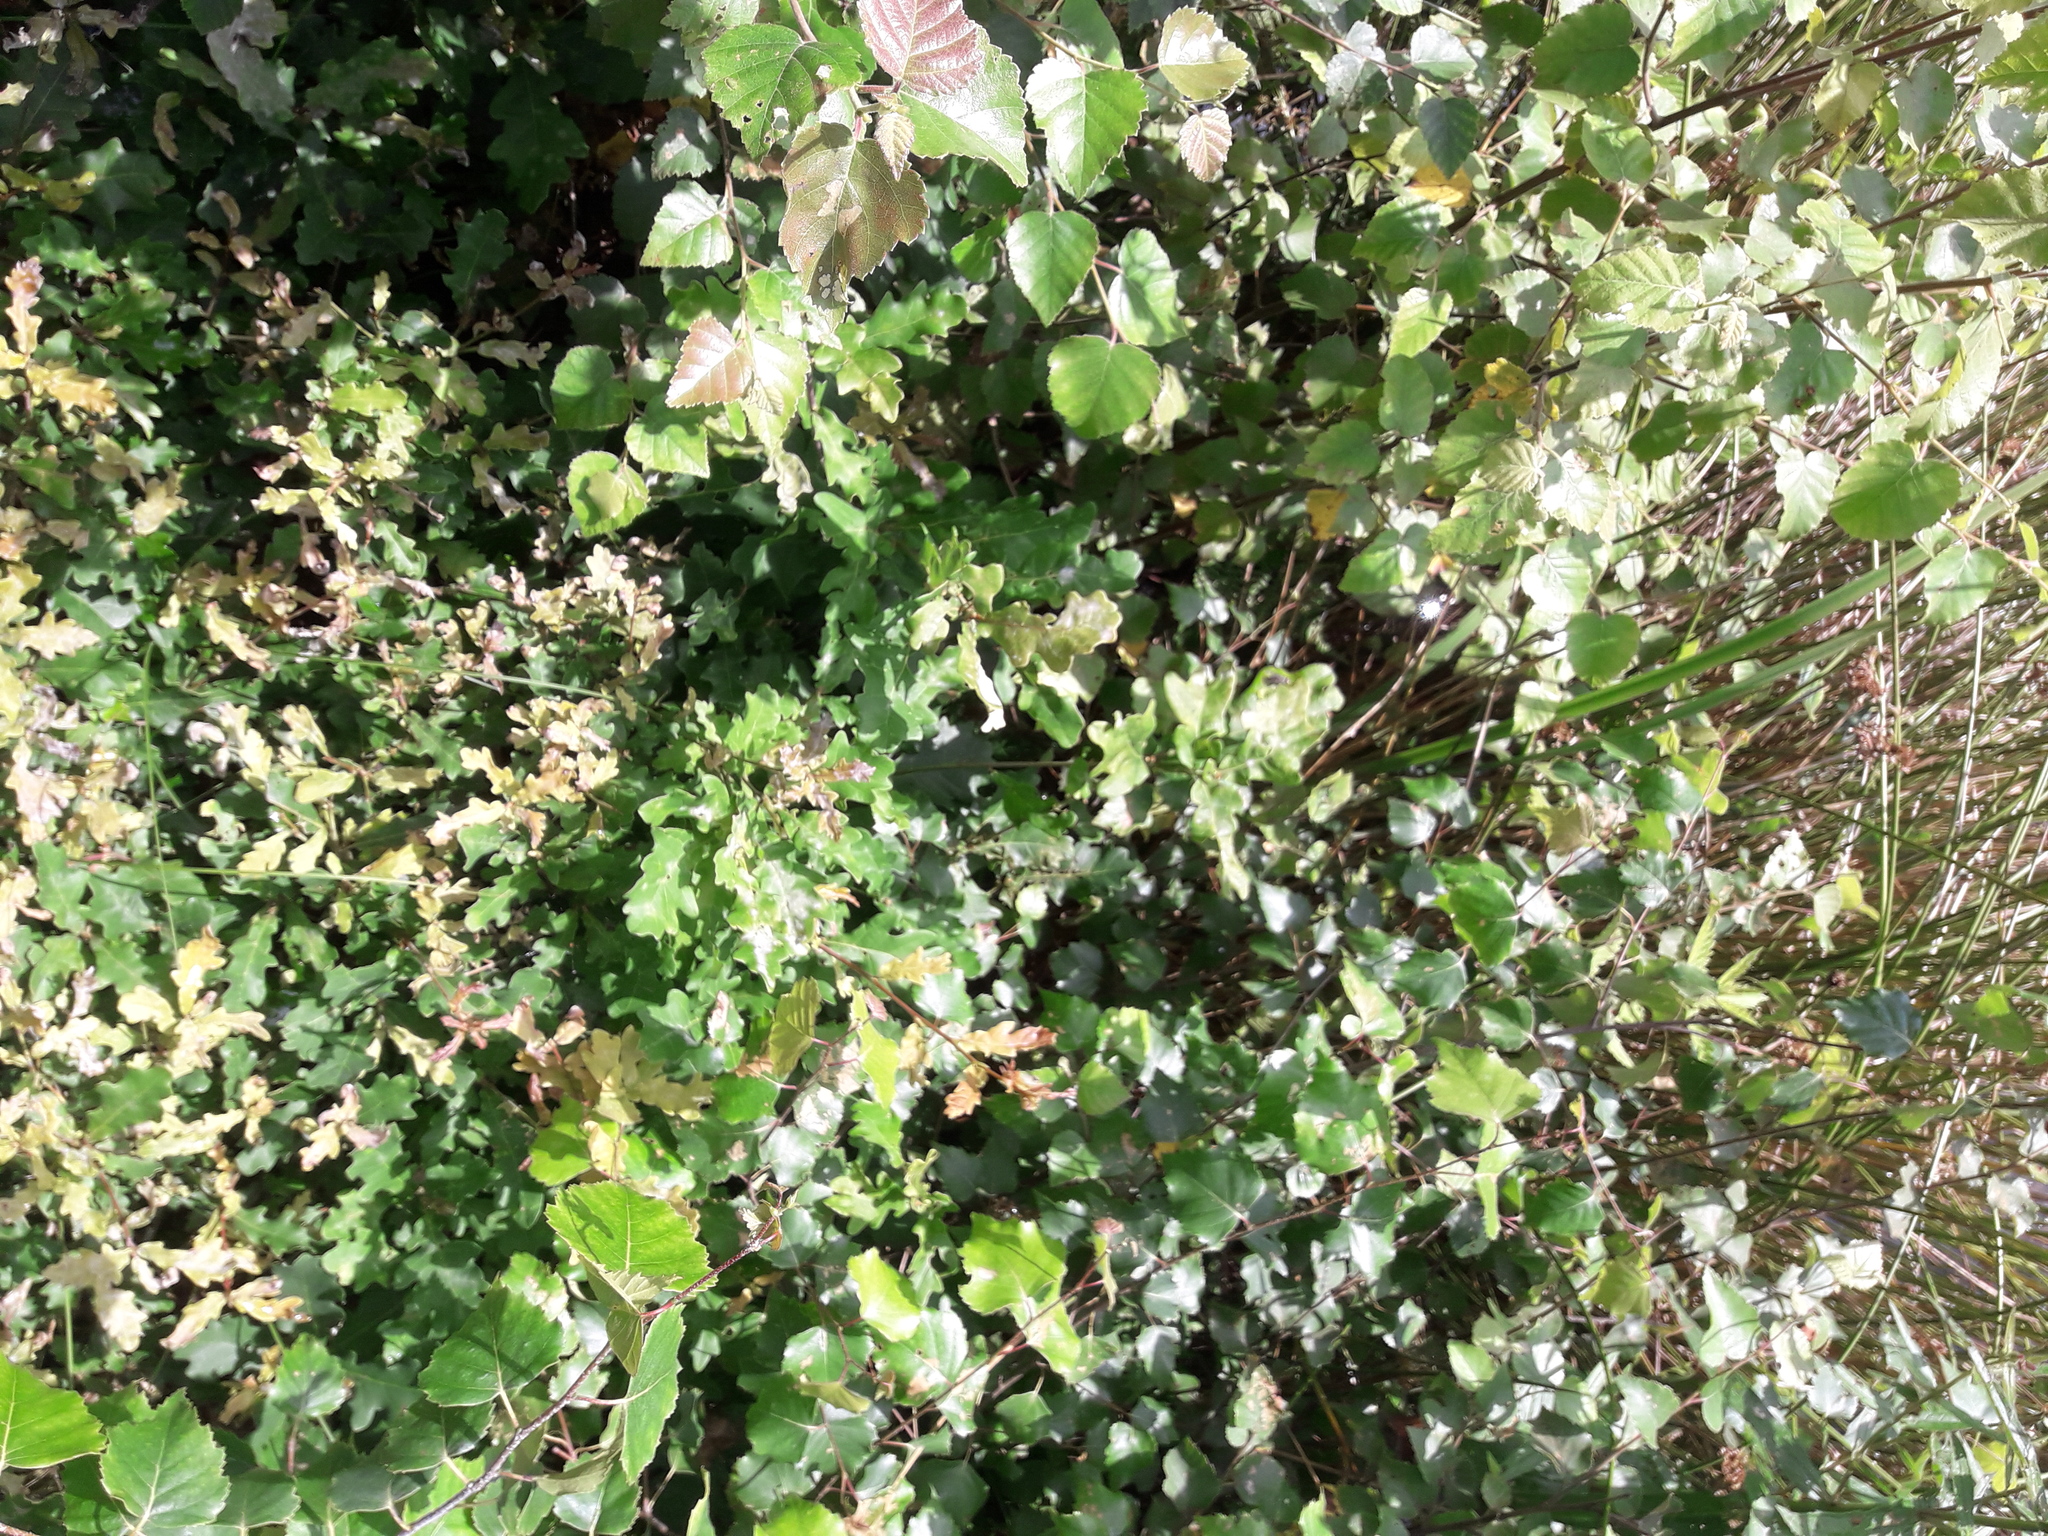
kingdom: Plantae
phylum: Tracheophyta
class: Liliopsida
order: Poales
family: Juncaceae
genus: Juncus
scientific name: Juncus effusus
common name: Soft rush
